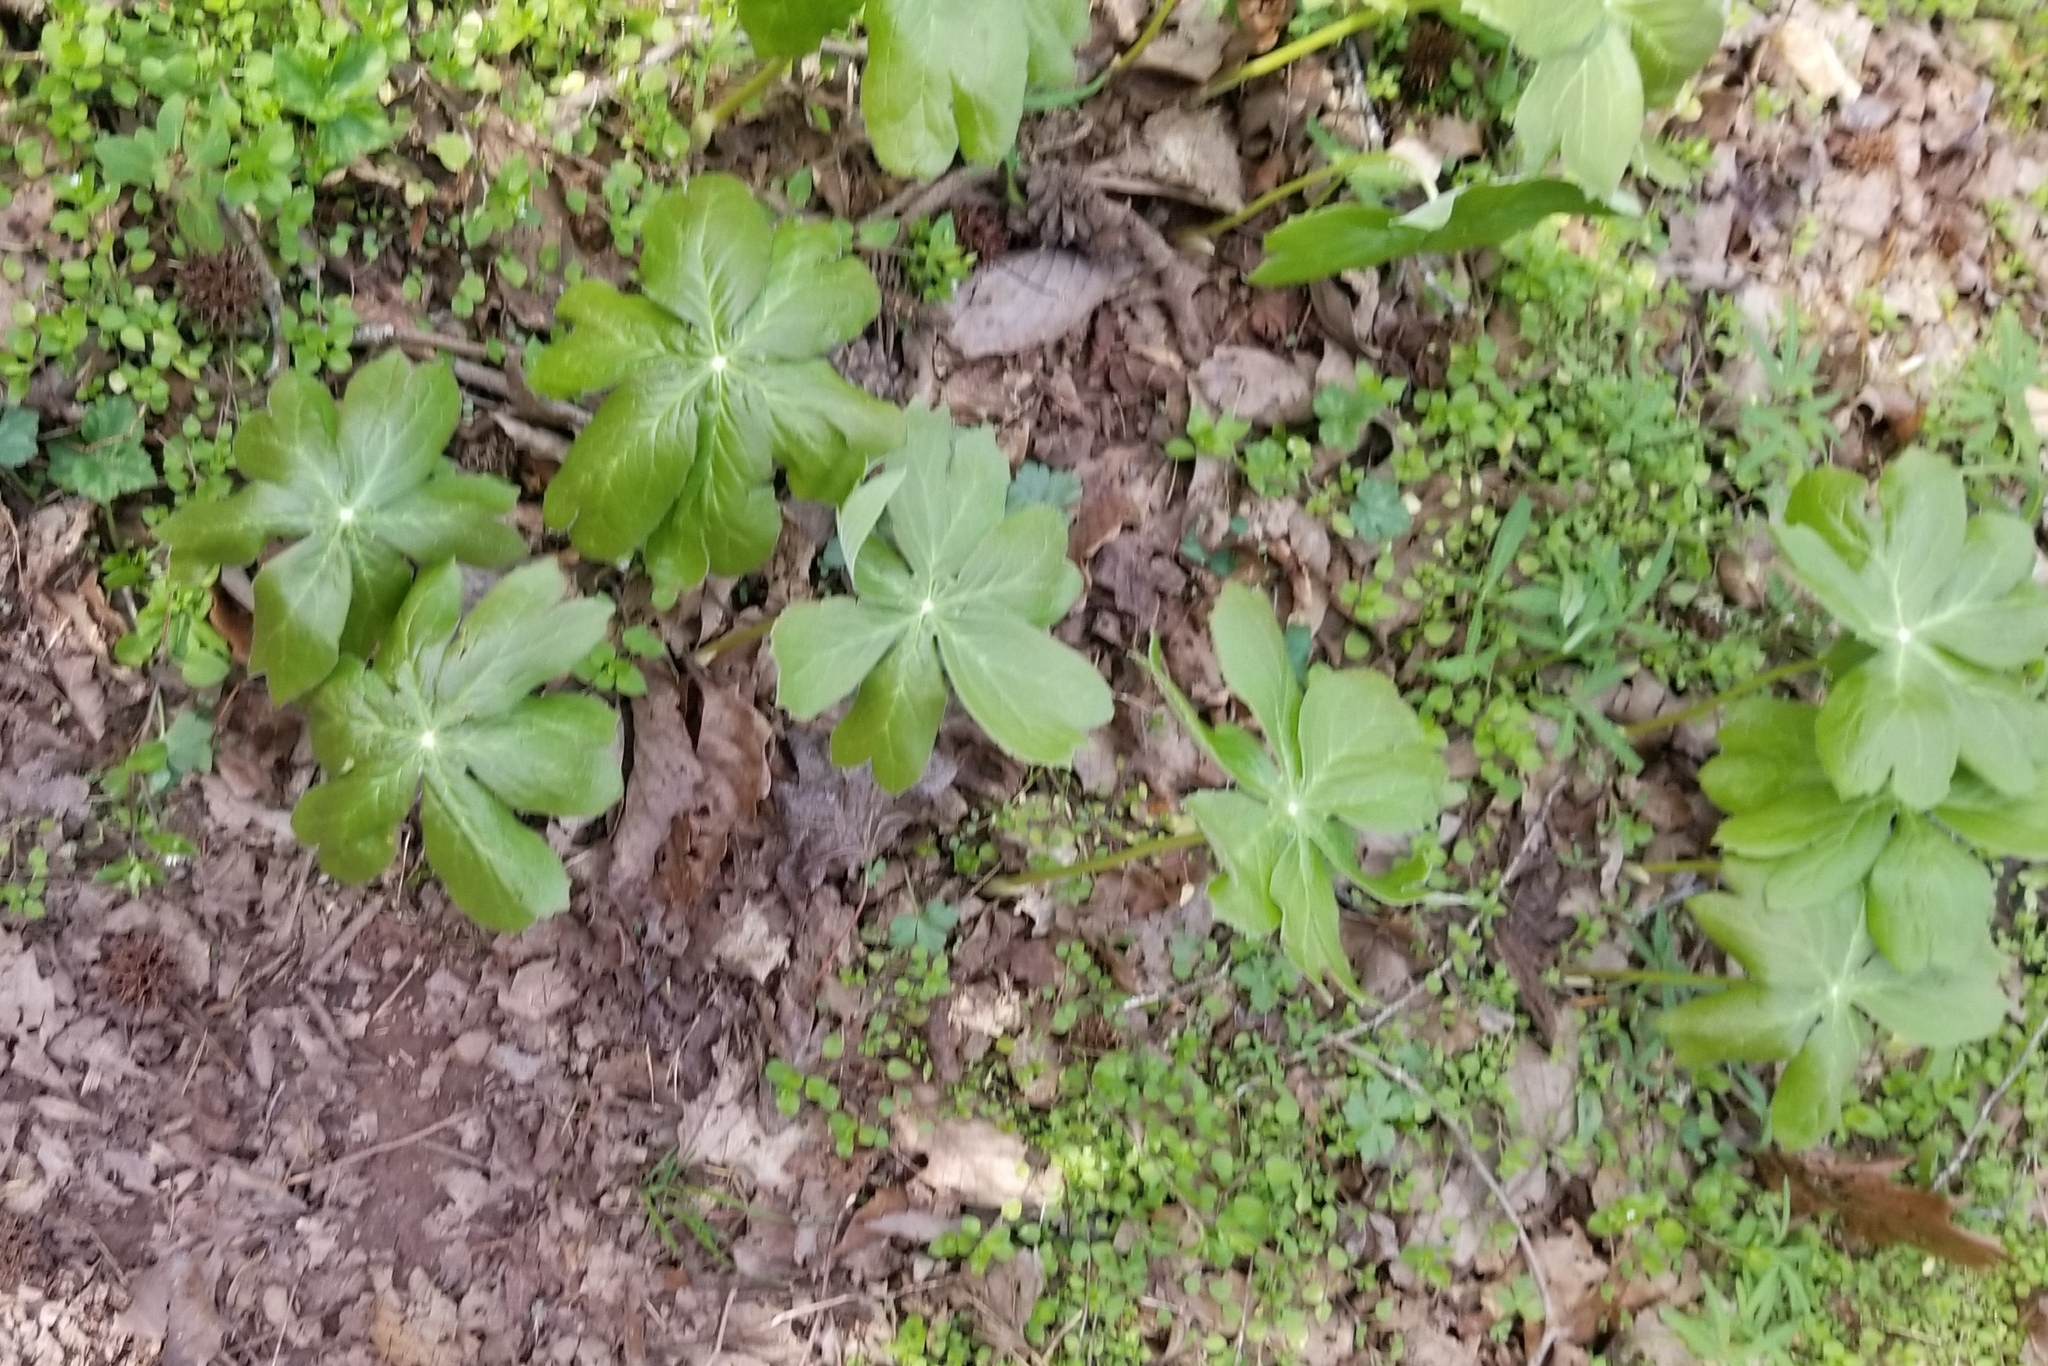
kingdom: Plantae
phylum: Tracheophyta
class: Magnoliopsida
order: Ranunculales
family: Berberidaceae
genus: Podophyllum
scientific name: Podophyllum peltatum
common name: Wild mandrake
